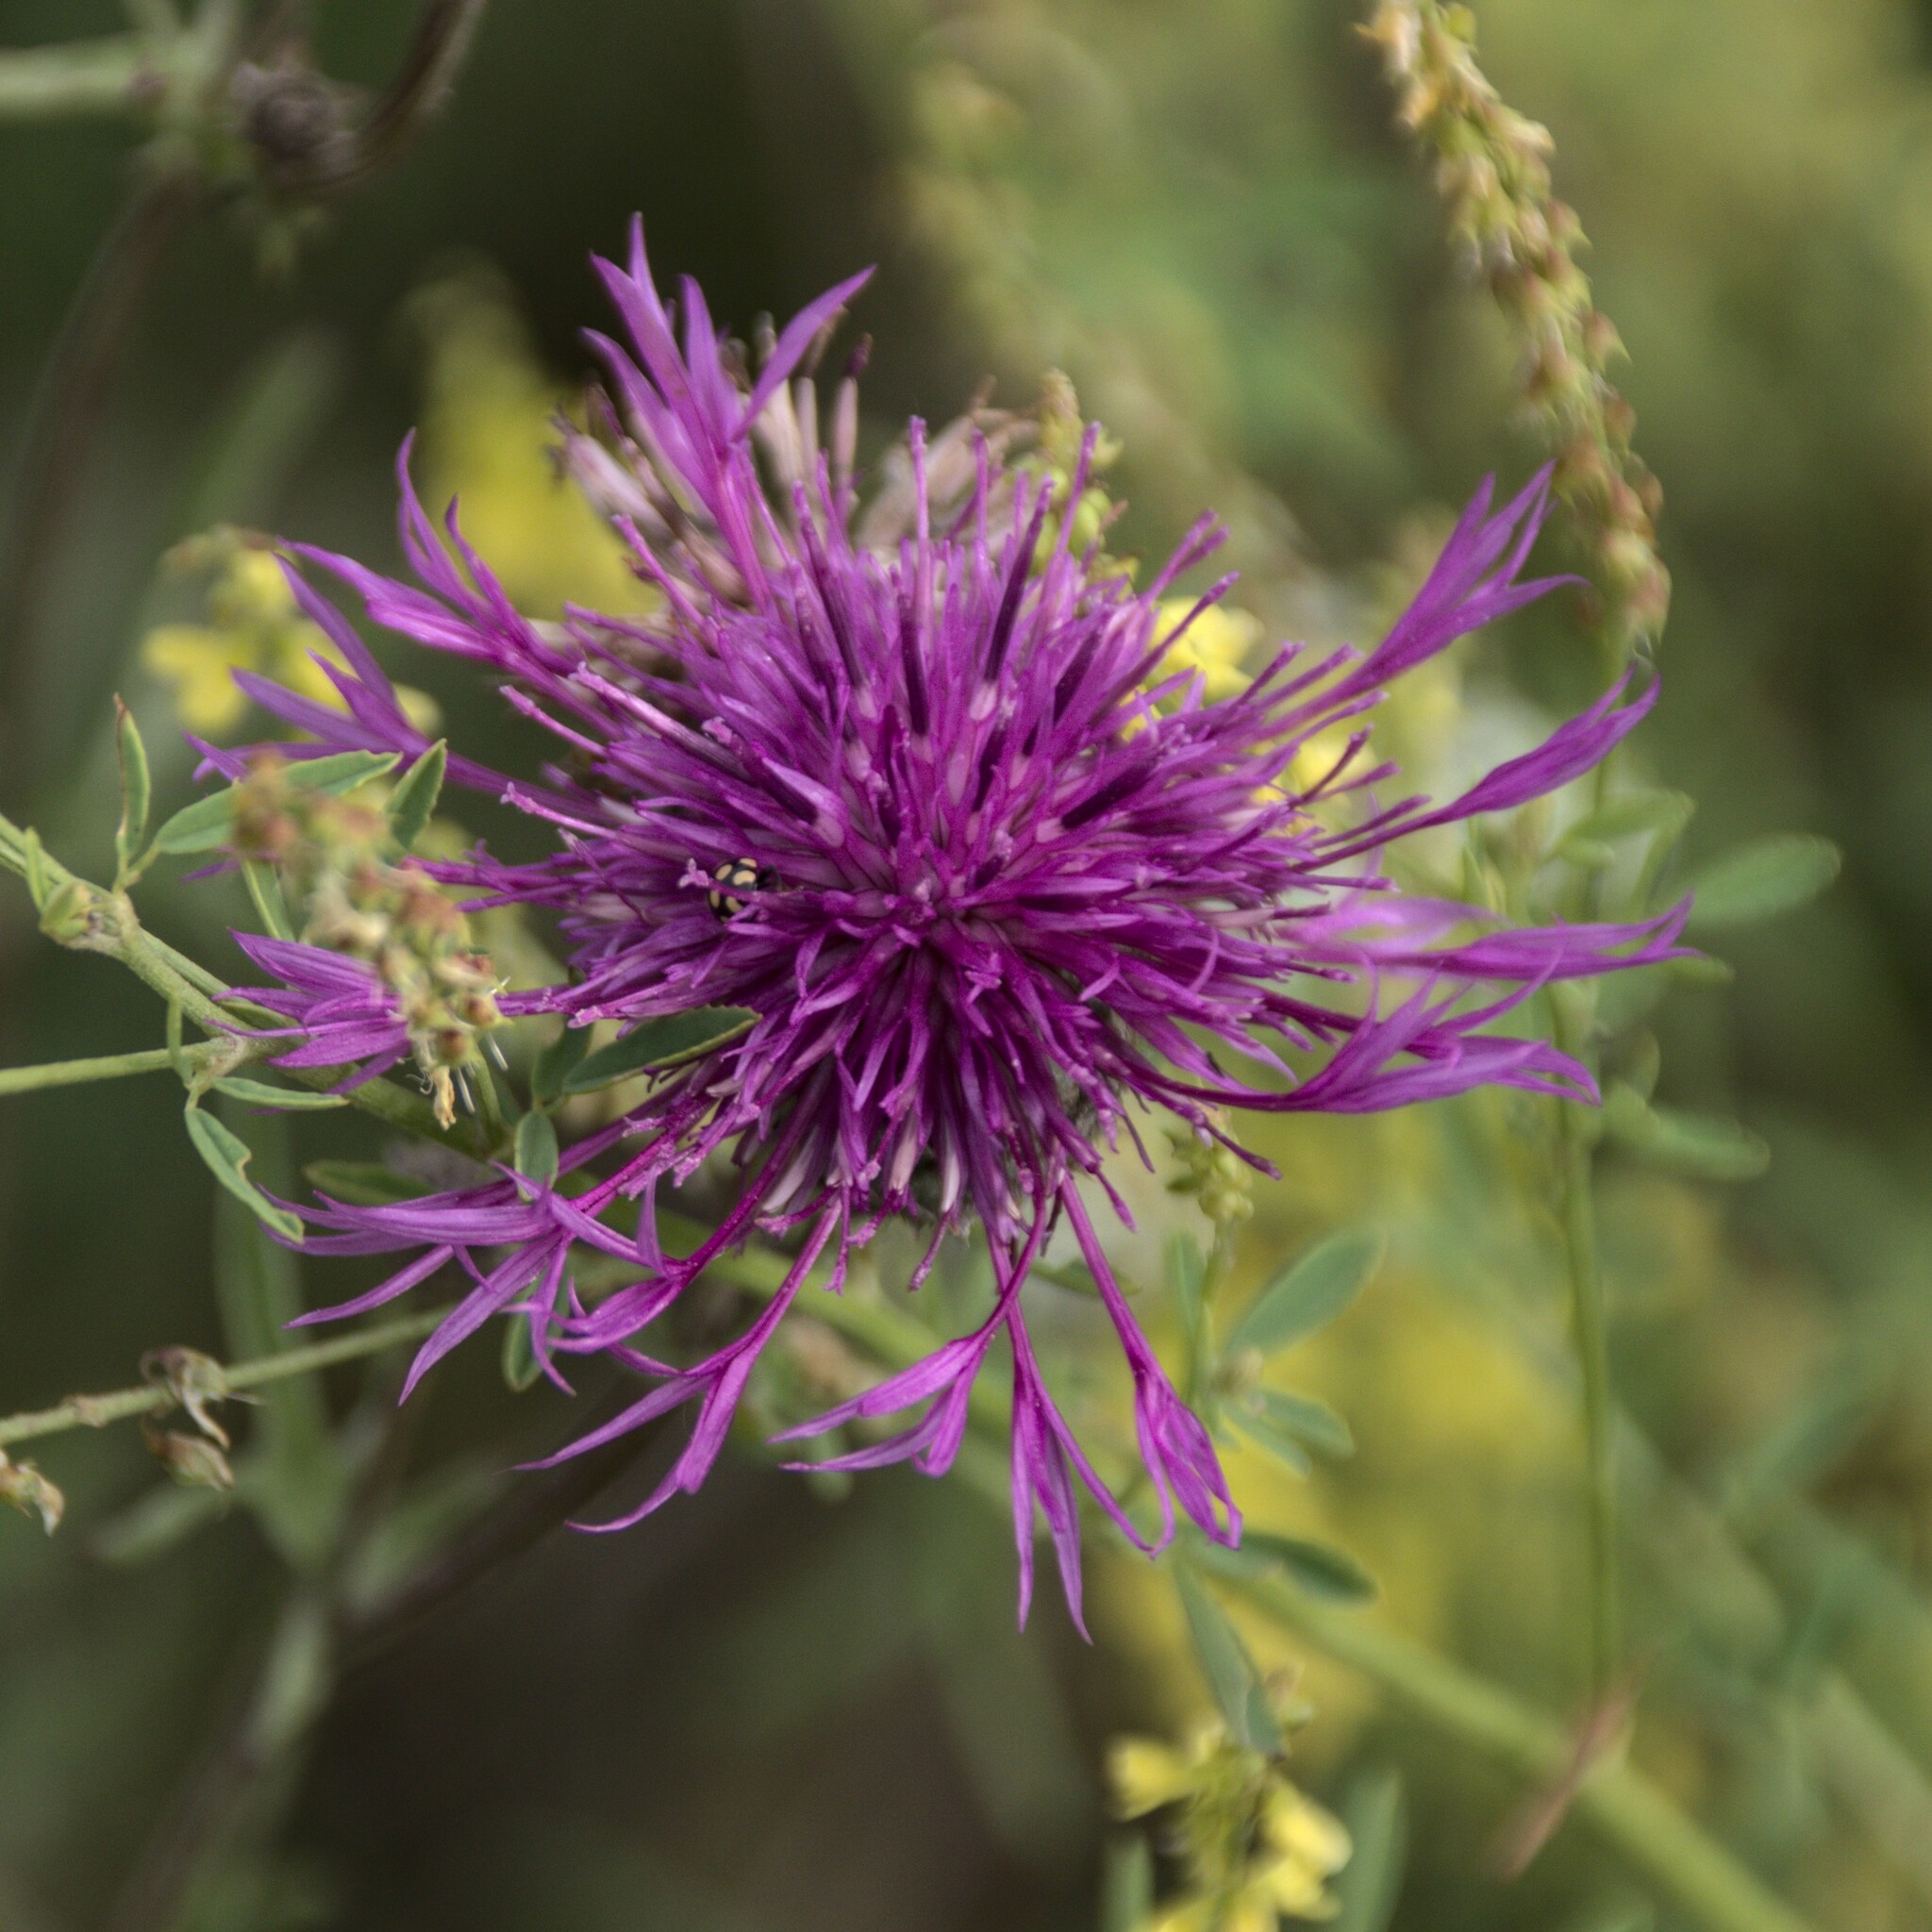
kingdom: Plantae
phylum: Tracheophyta
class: Magnoliopsida
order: Asterales
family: Asteraceae
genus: Centaurea
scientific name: Centaurea scabiosa
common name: Greater knapweed
